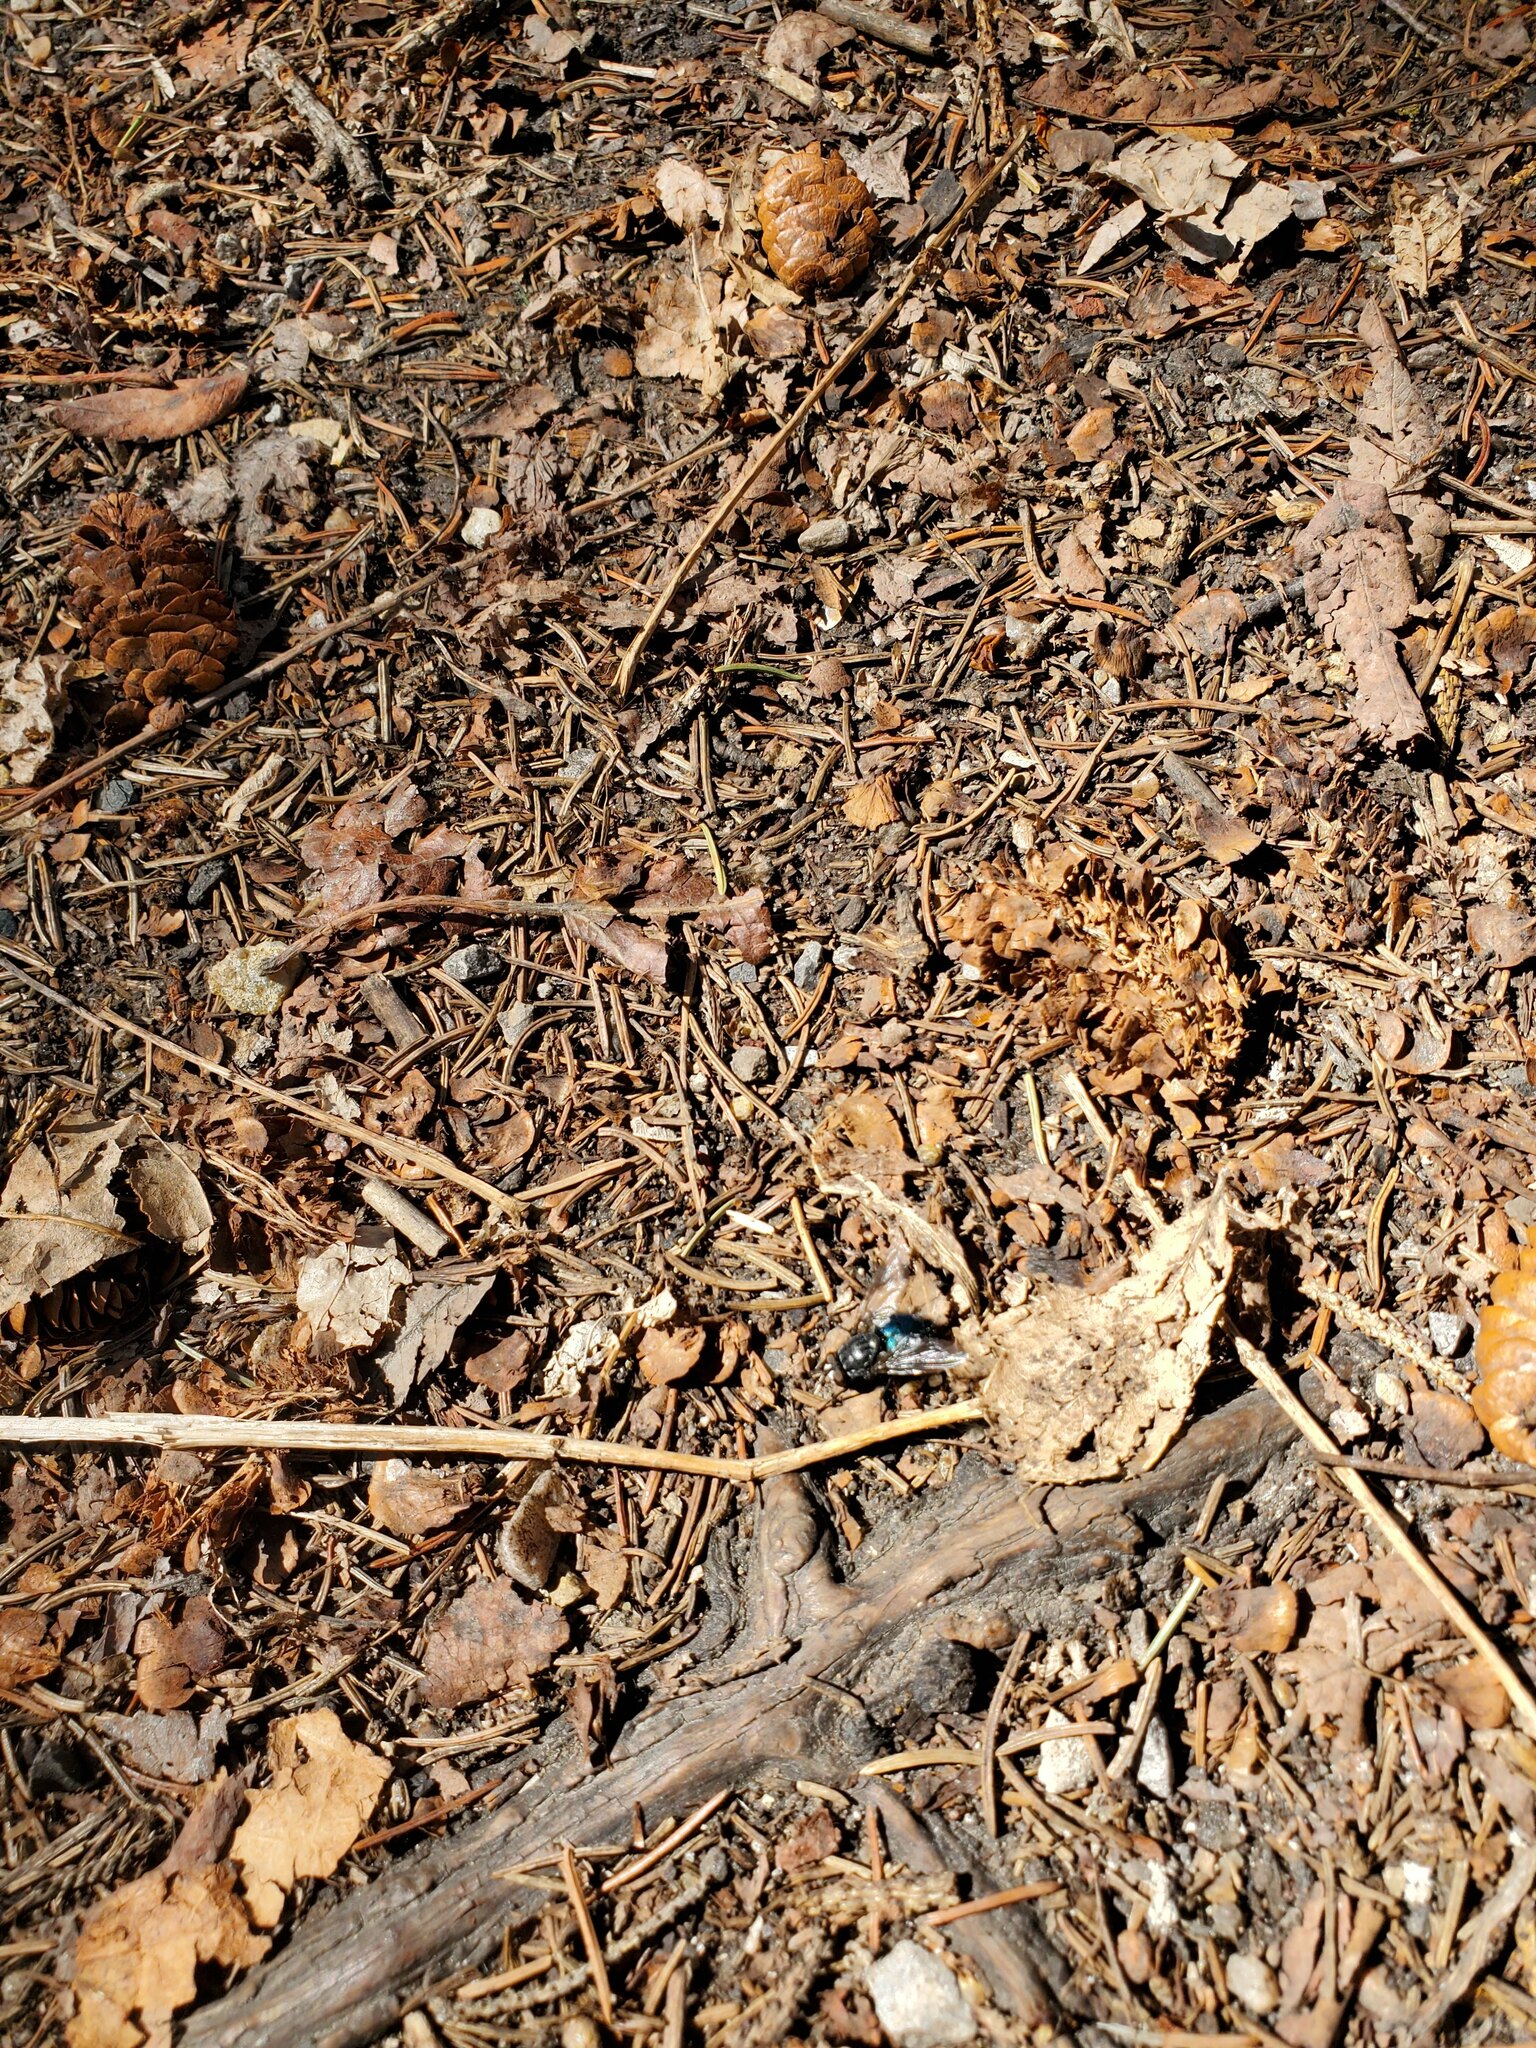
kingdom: Animalia
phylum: Arthropoda
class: Insecta
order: Diptera
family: Calliphoridae
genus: Cynomya
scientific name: Cynomya cadaverina
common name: Shiny blue bottle fly
